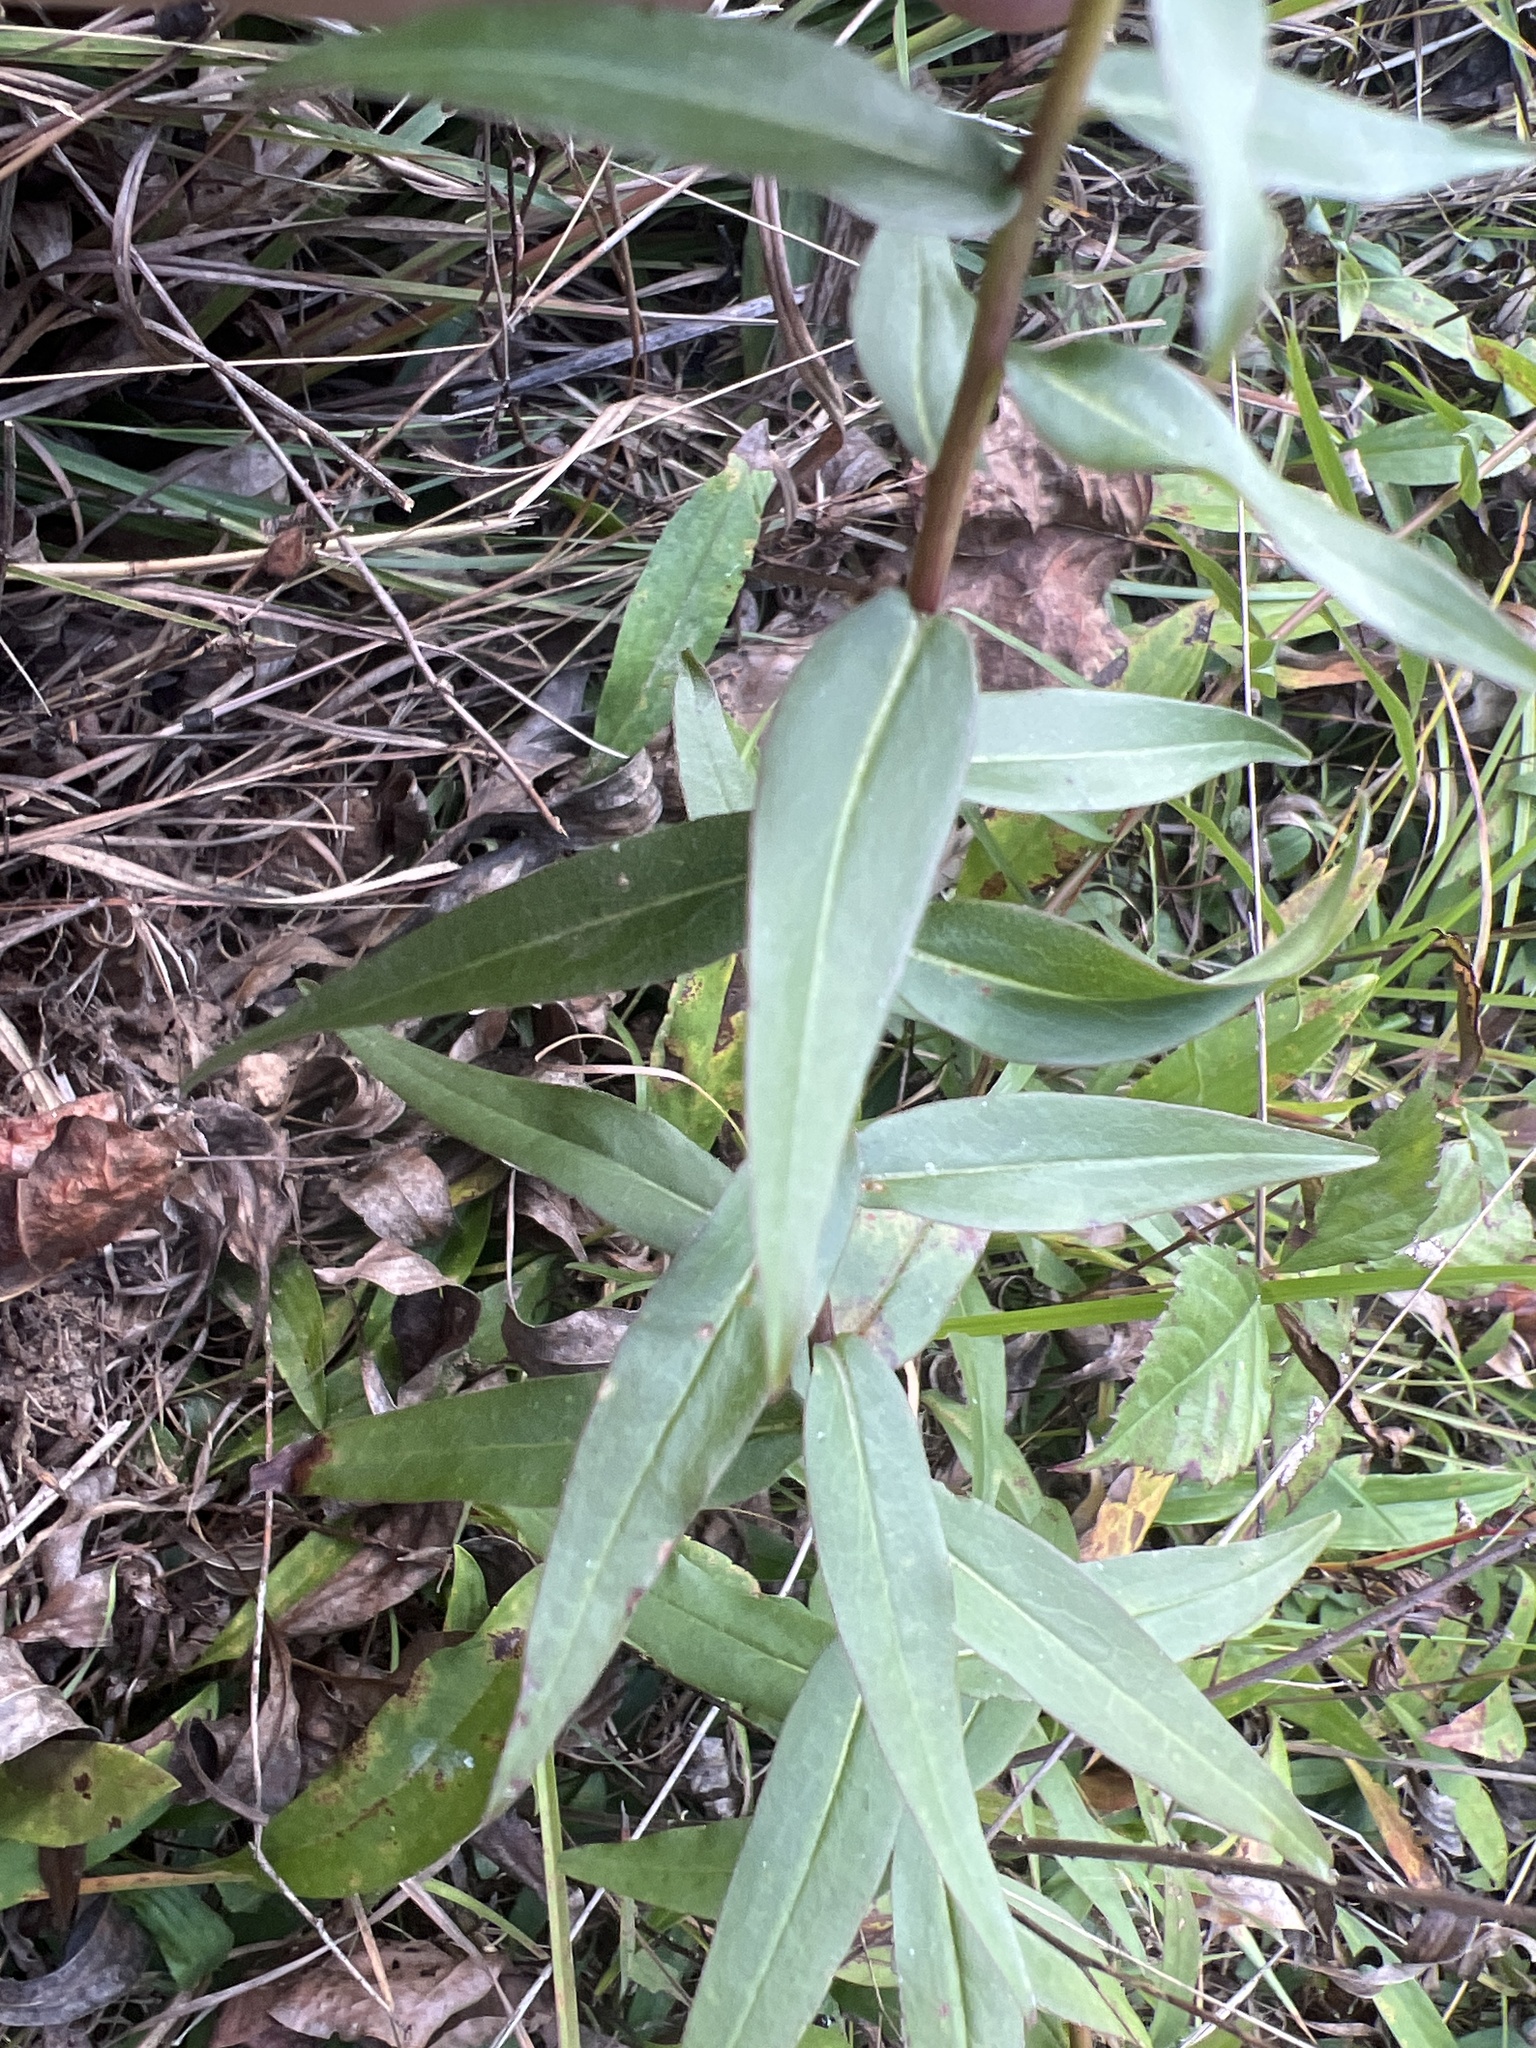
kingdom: Plantae
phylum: Tracheophyta
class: Magnoliopsida
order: Asterales
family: Asteraceae
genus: Solidago
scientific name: Solidago odora
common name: Anise-scented goldenrod
